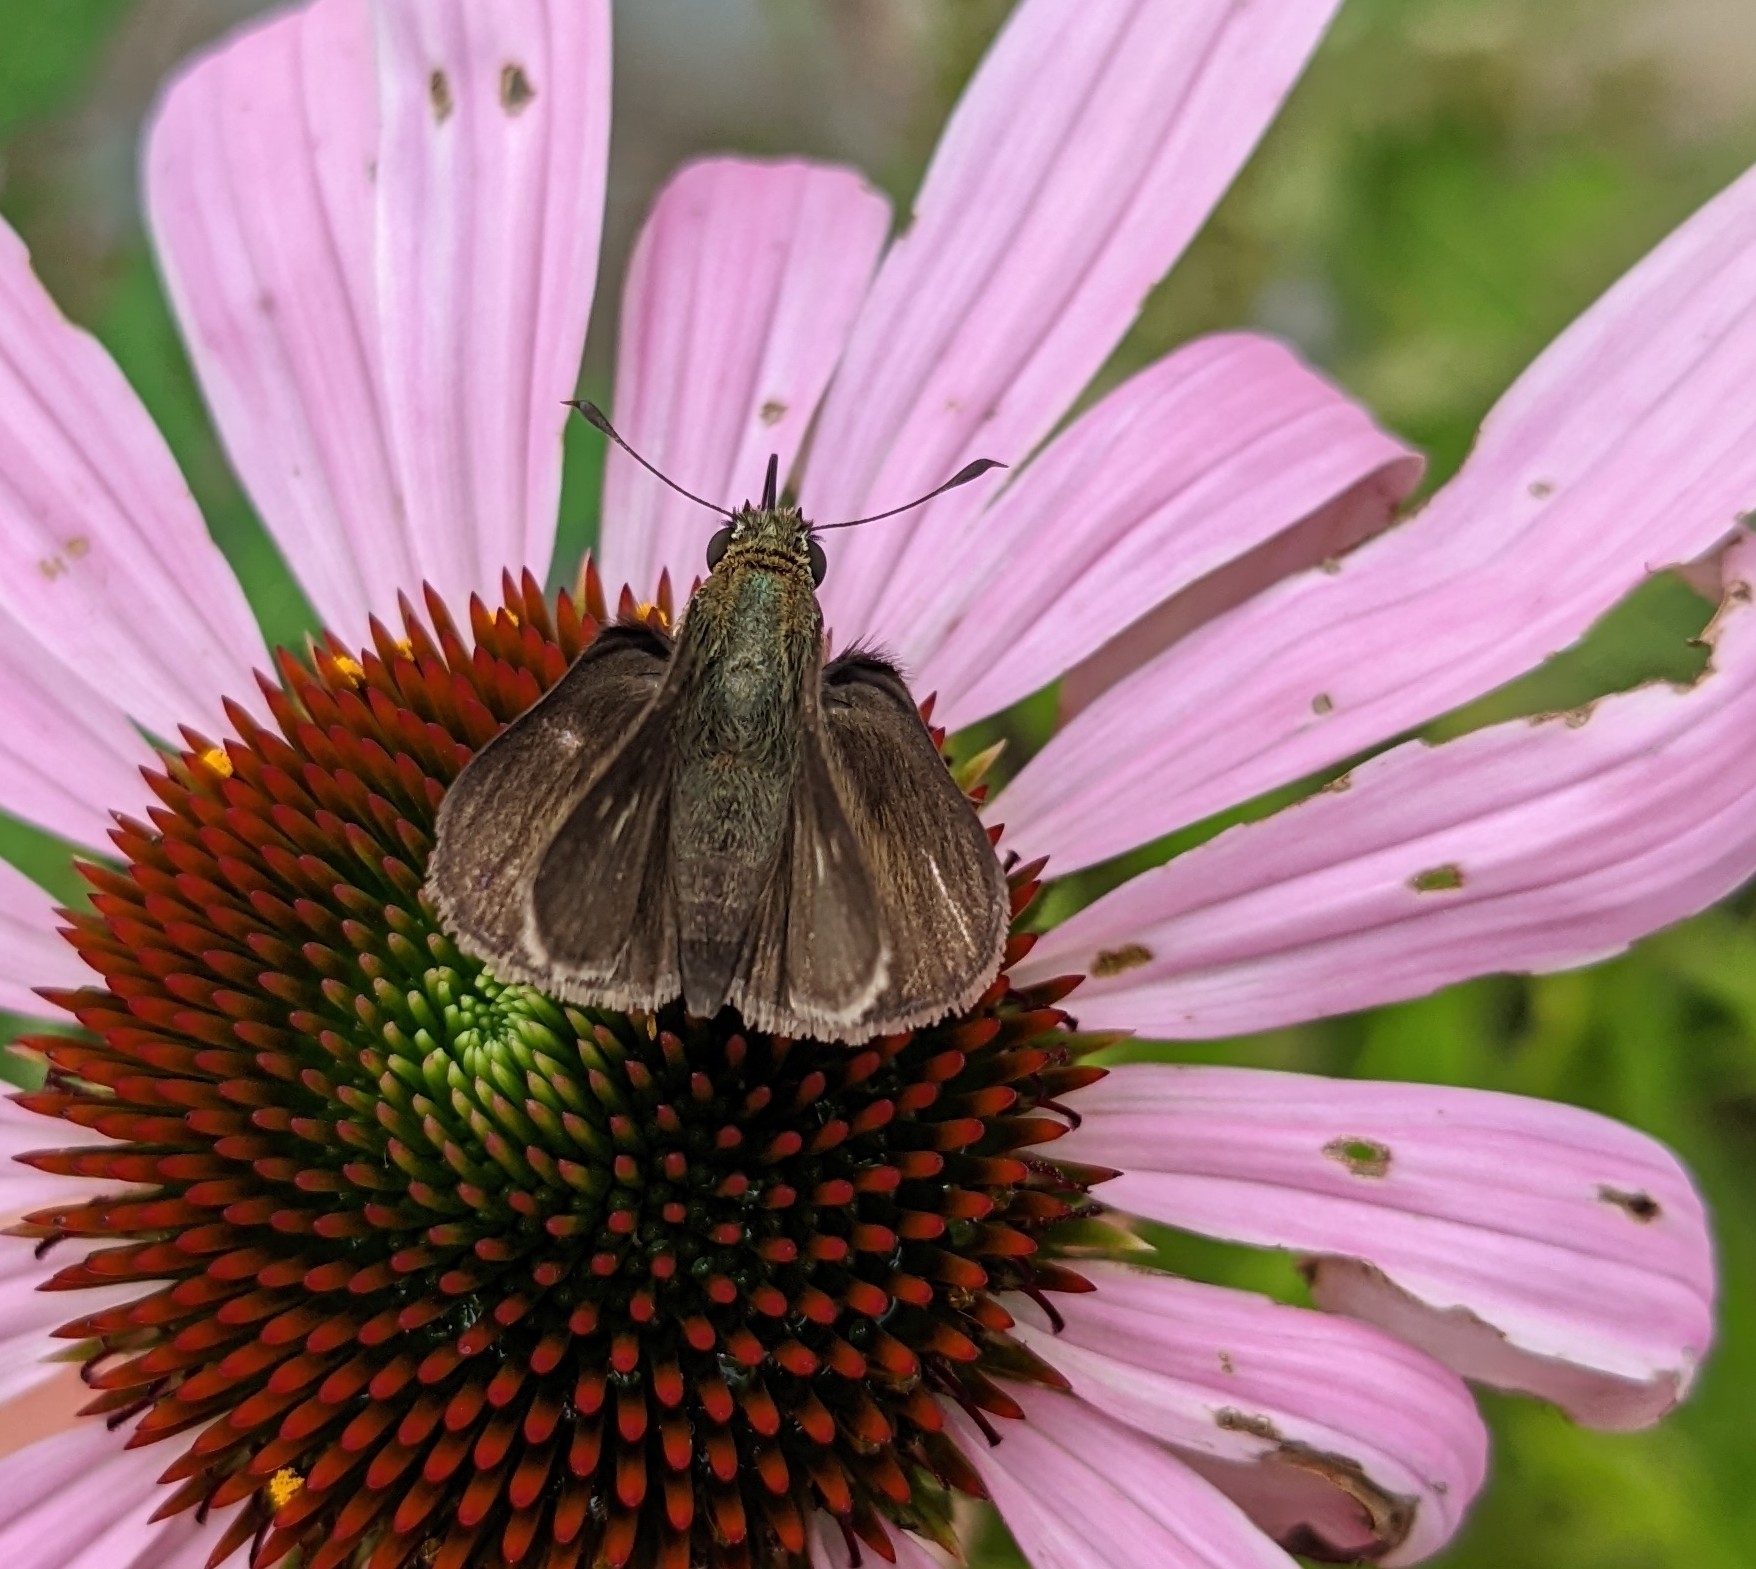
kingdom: Animalia
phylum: Arthropoda
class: Insecta
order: Lepidoptera
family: Hesperiidae
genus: Euphyes
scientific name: Euphyes vestris
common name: Dun skipper
